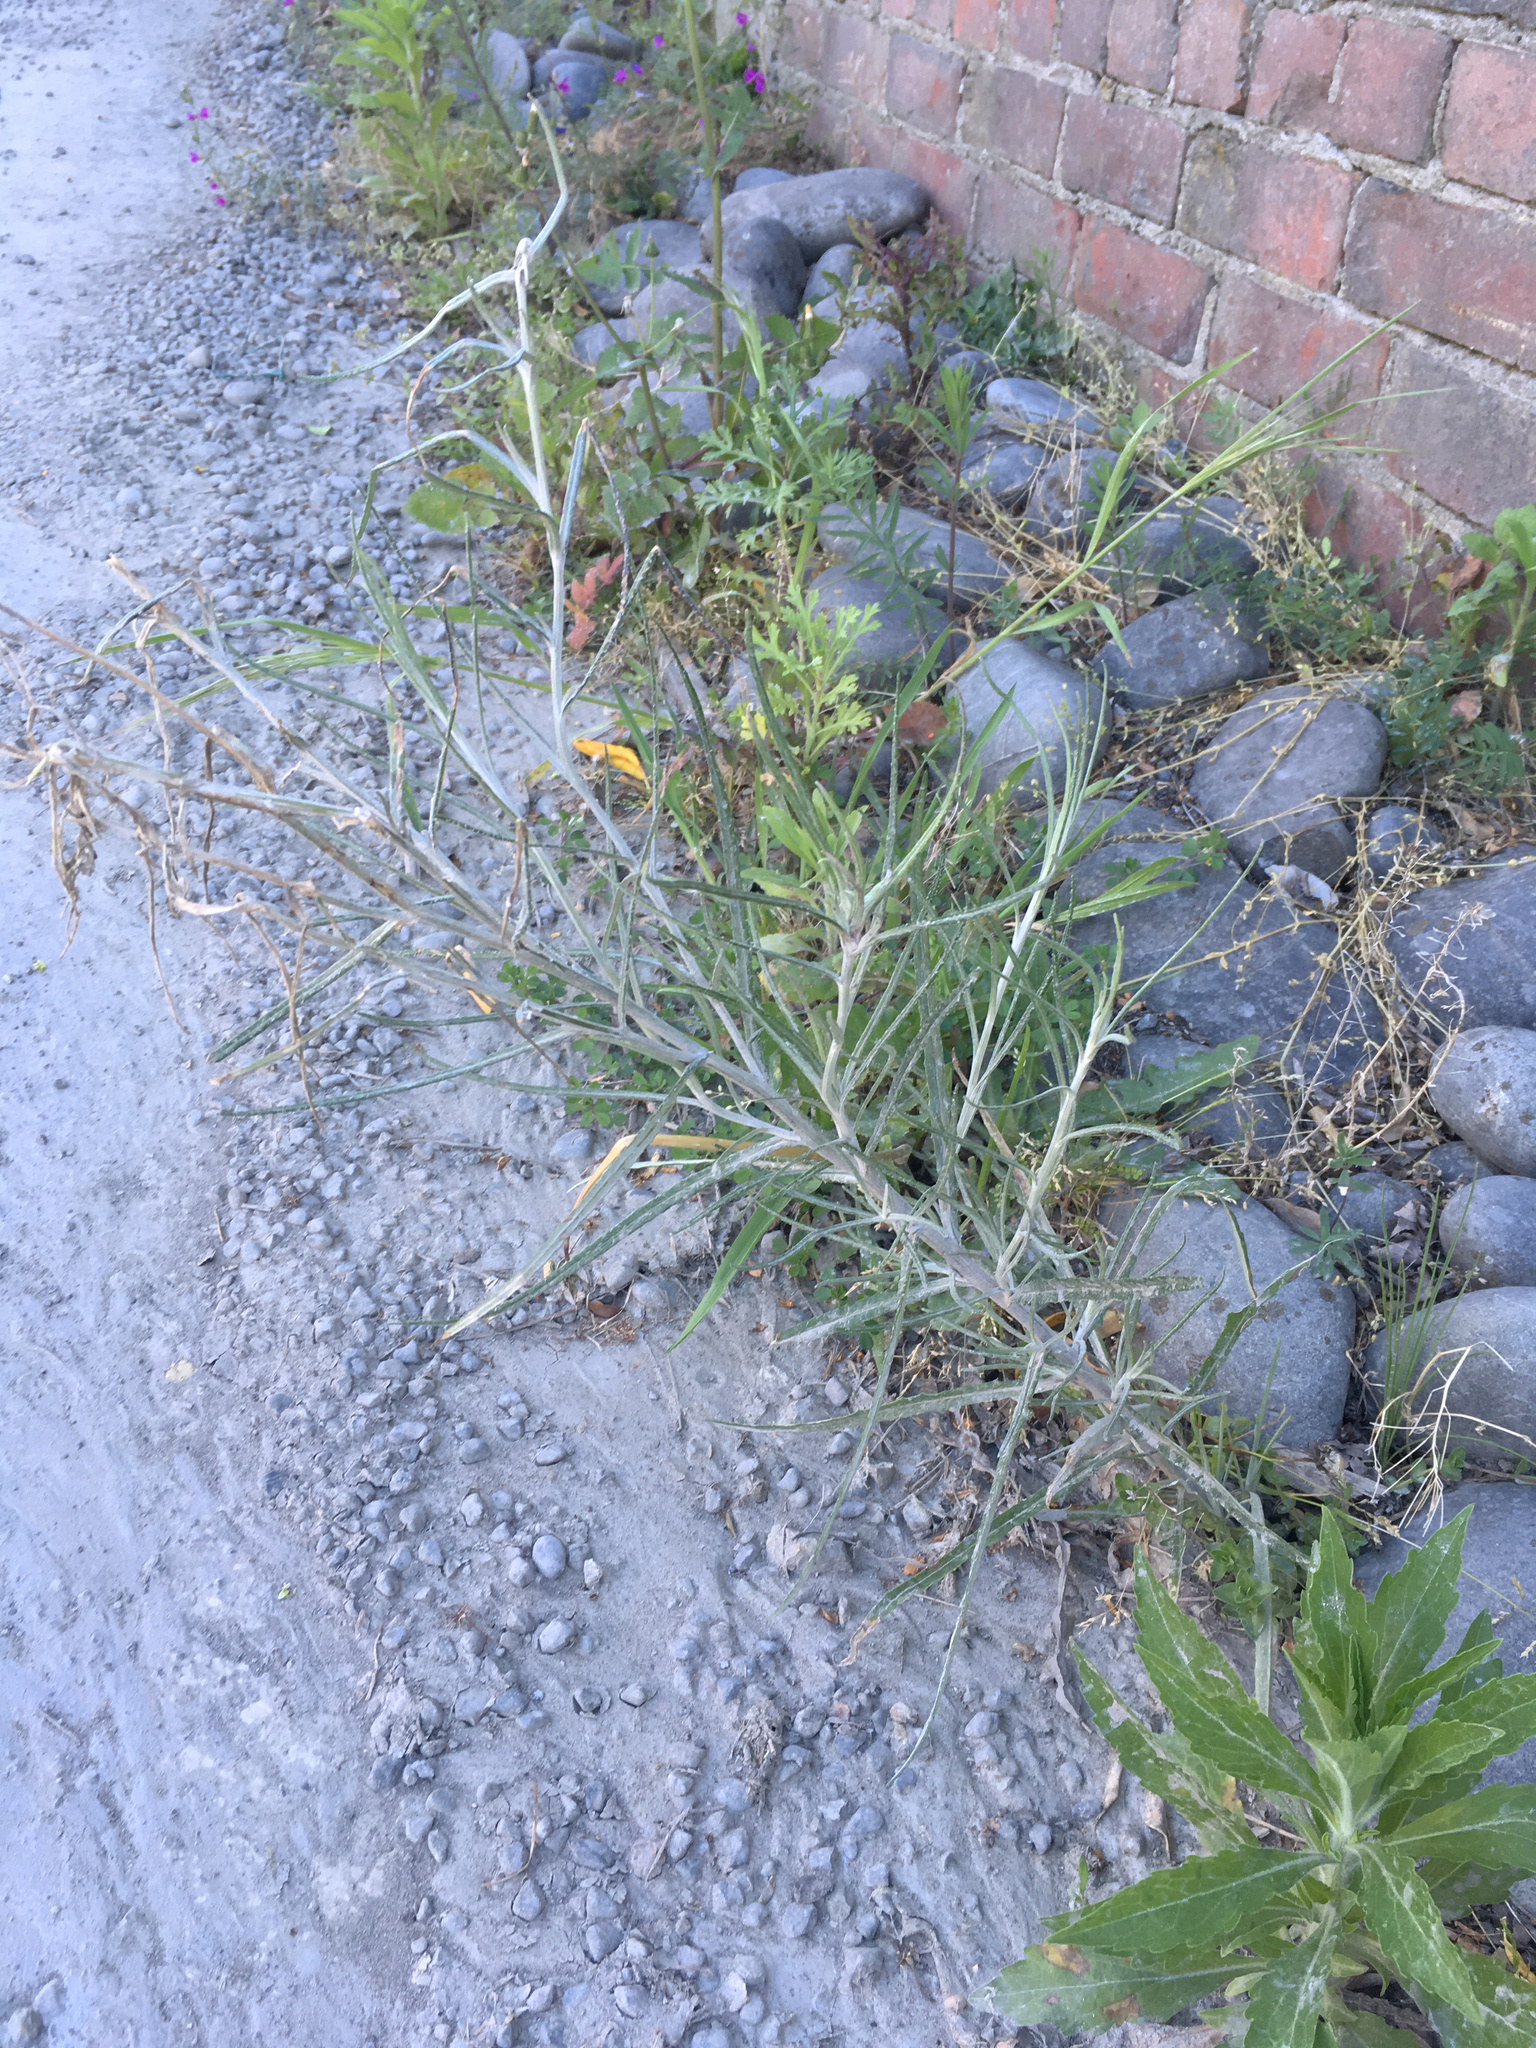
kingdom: Plantae
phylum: Tracheophyta
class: Magnoliopsida
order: Asterales
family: Asteraceae
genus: Senecio
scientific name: Senecio quadridentatus
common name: Cotton fireweed
